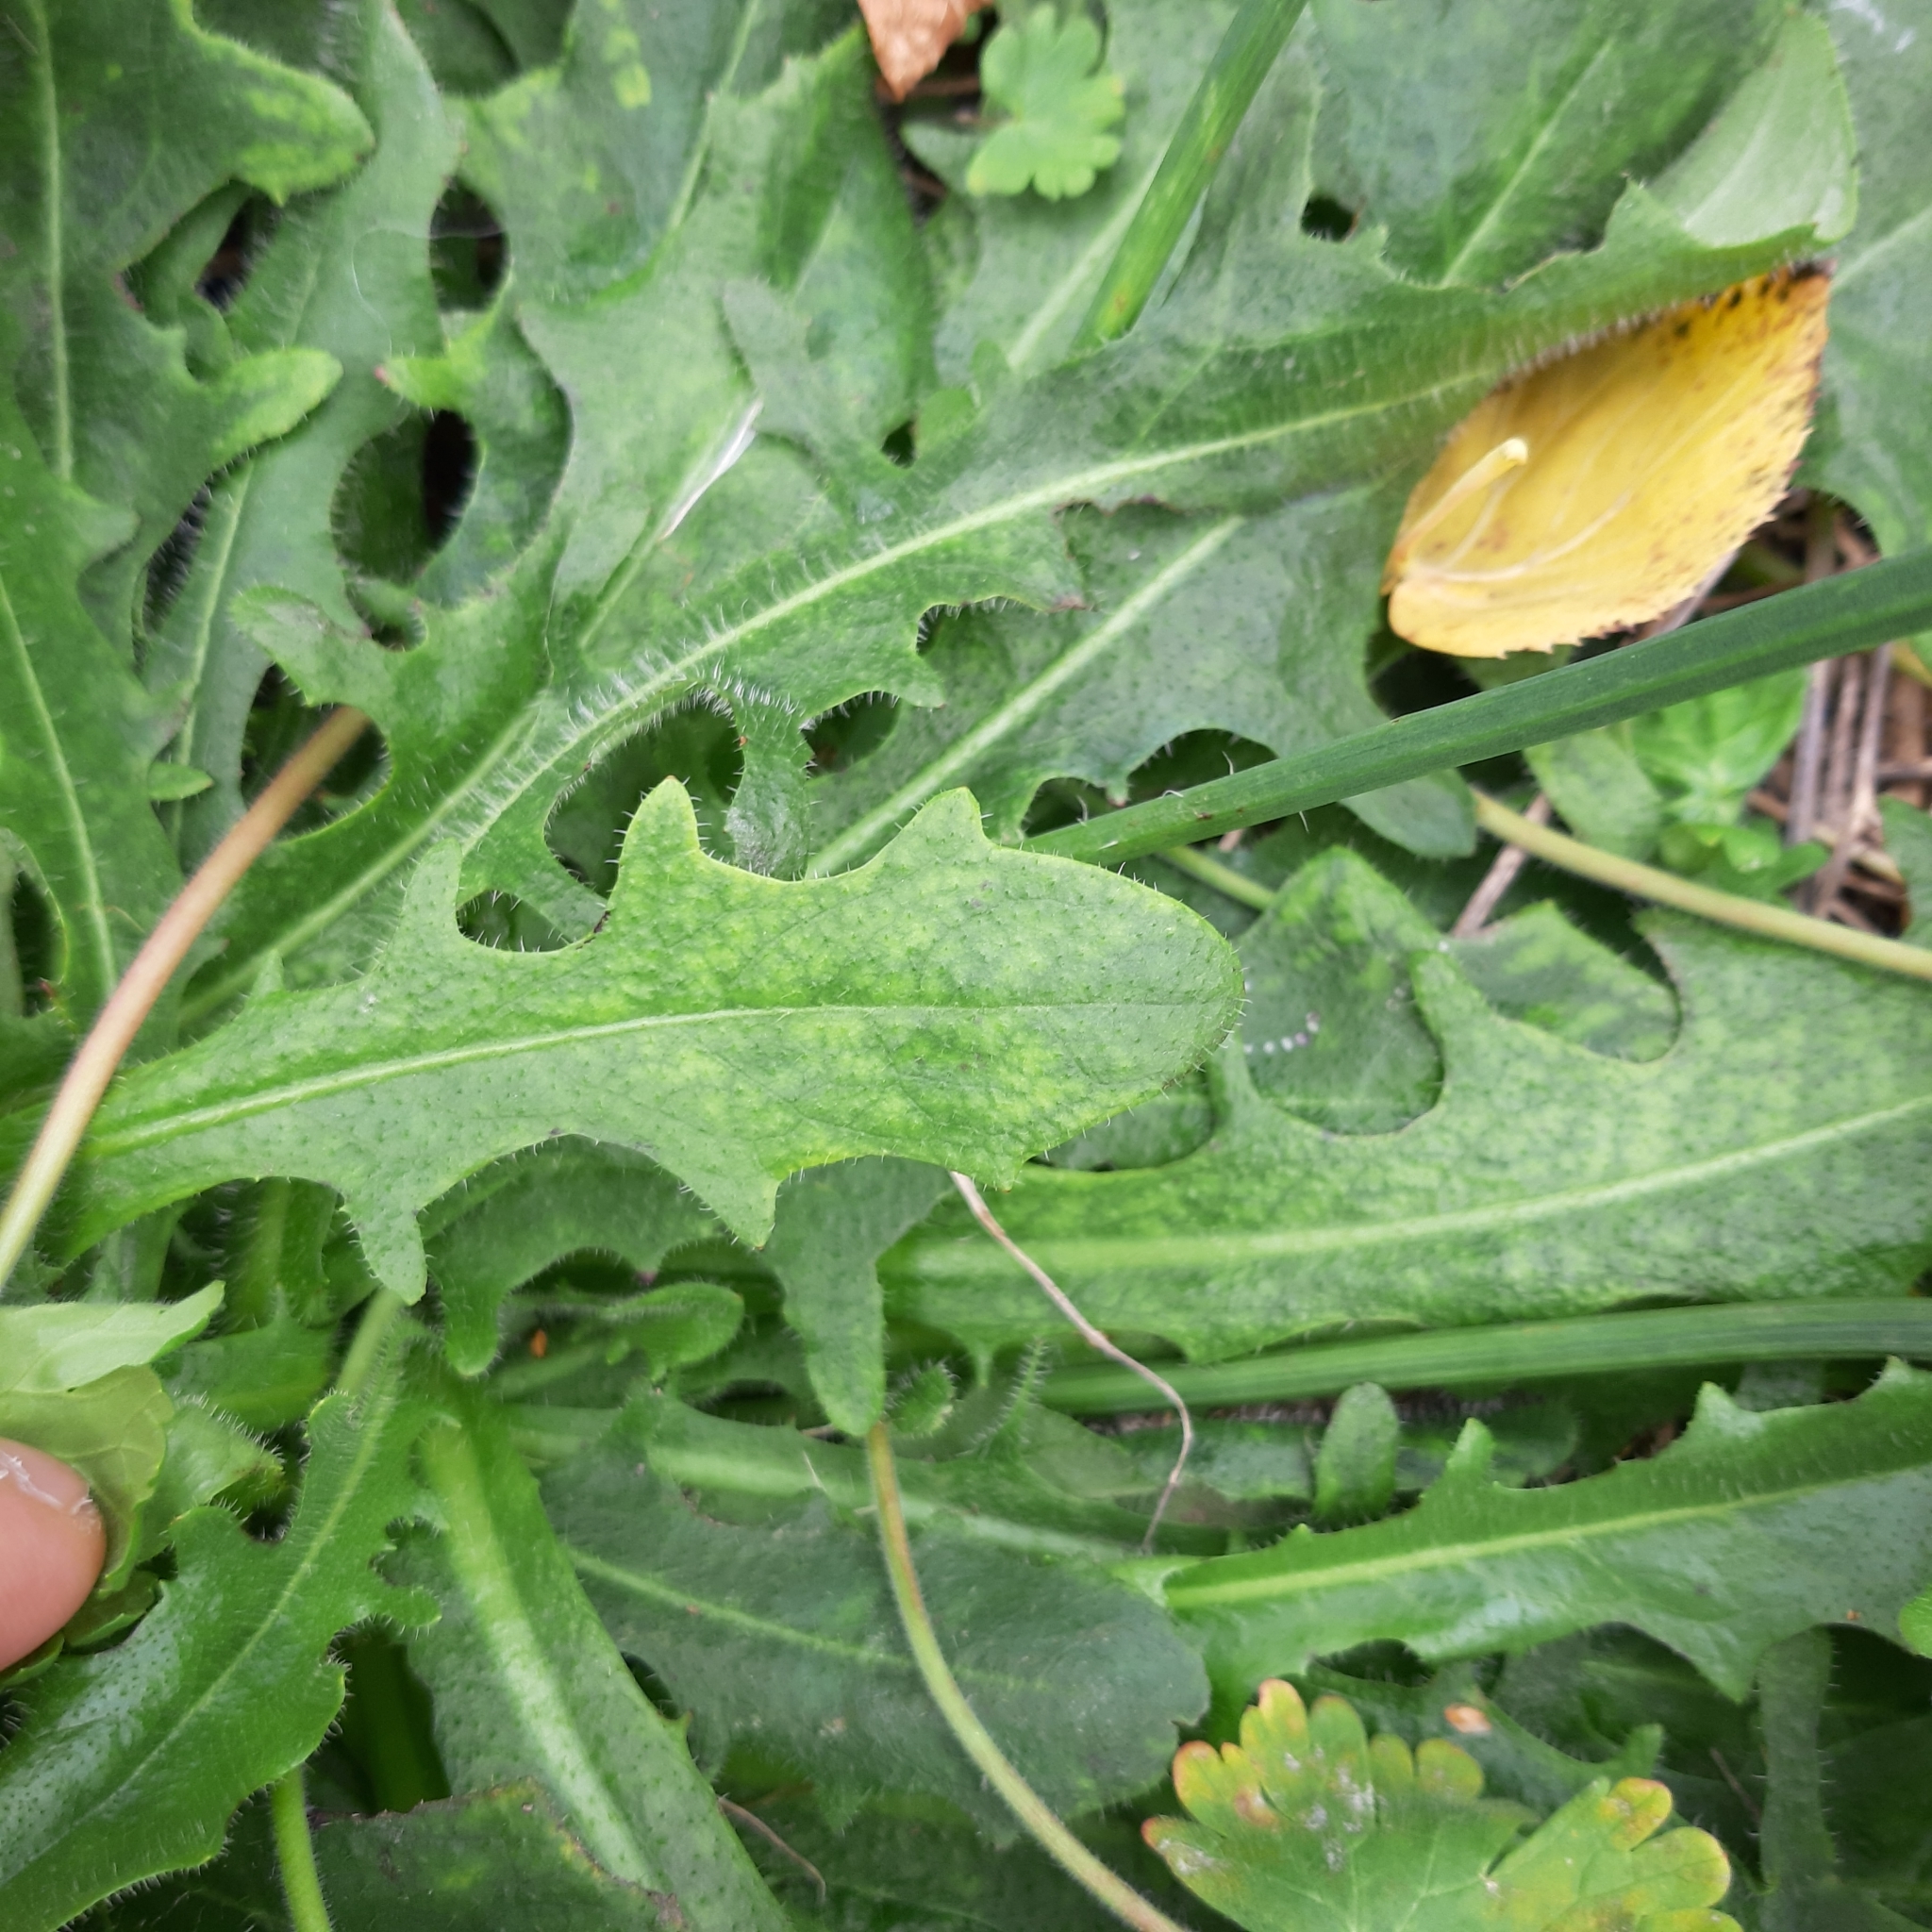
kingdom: Plantae
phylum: Tracheophyta
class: Magnoliopsida
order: Asterales
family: Asteraceae
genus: Hypochaeris
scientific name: Hypochaeris radicata
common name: Flatweed
